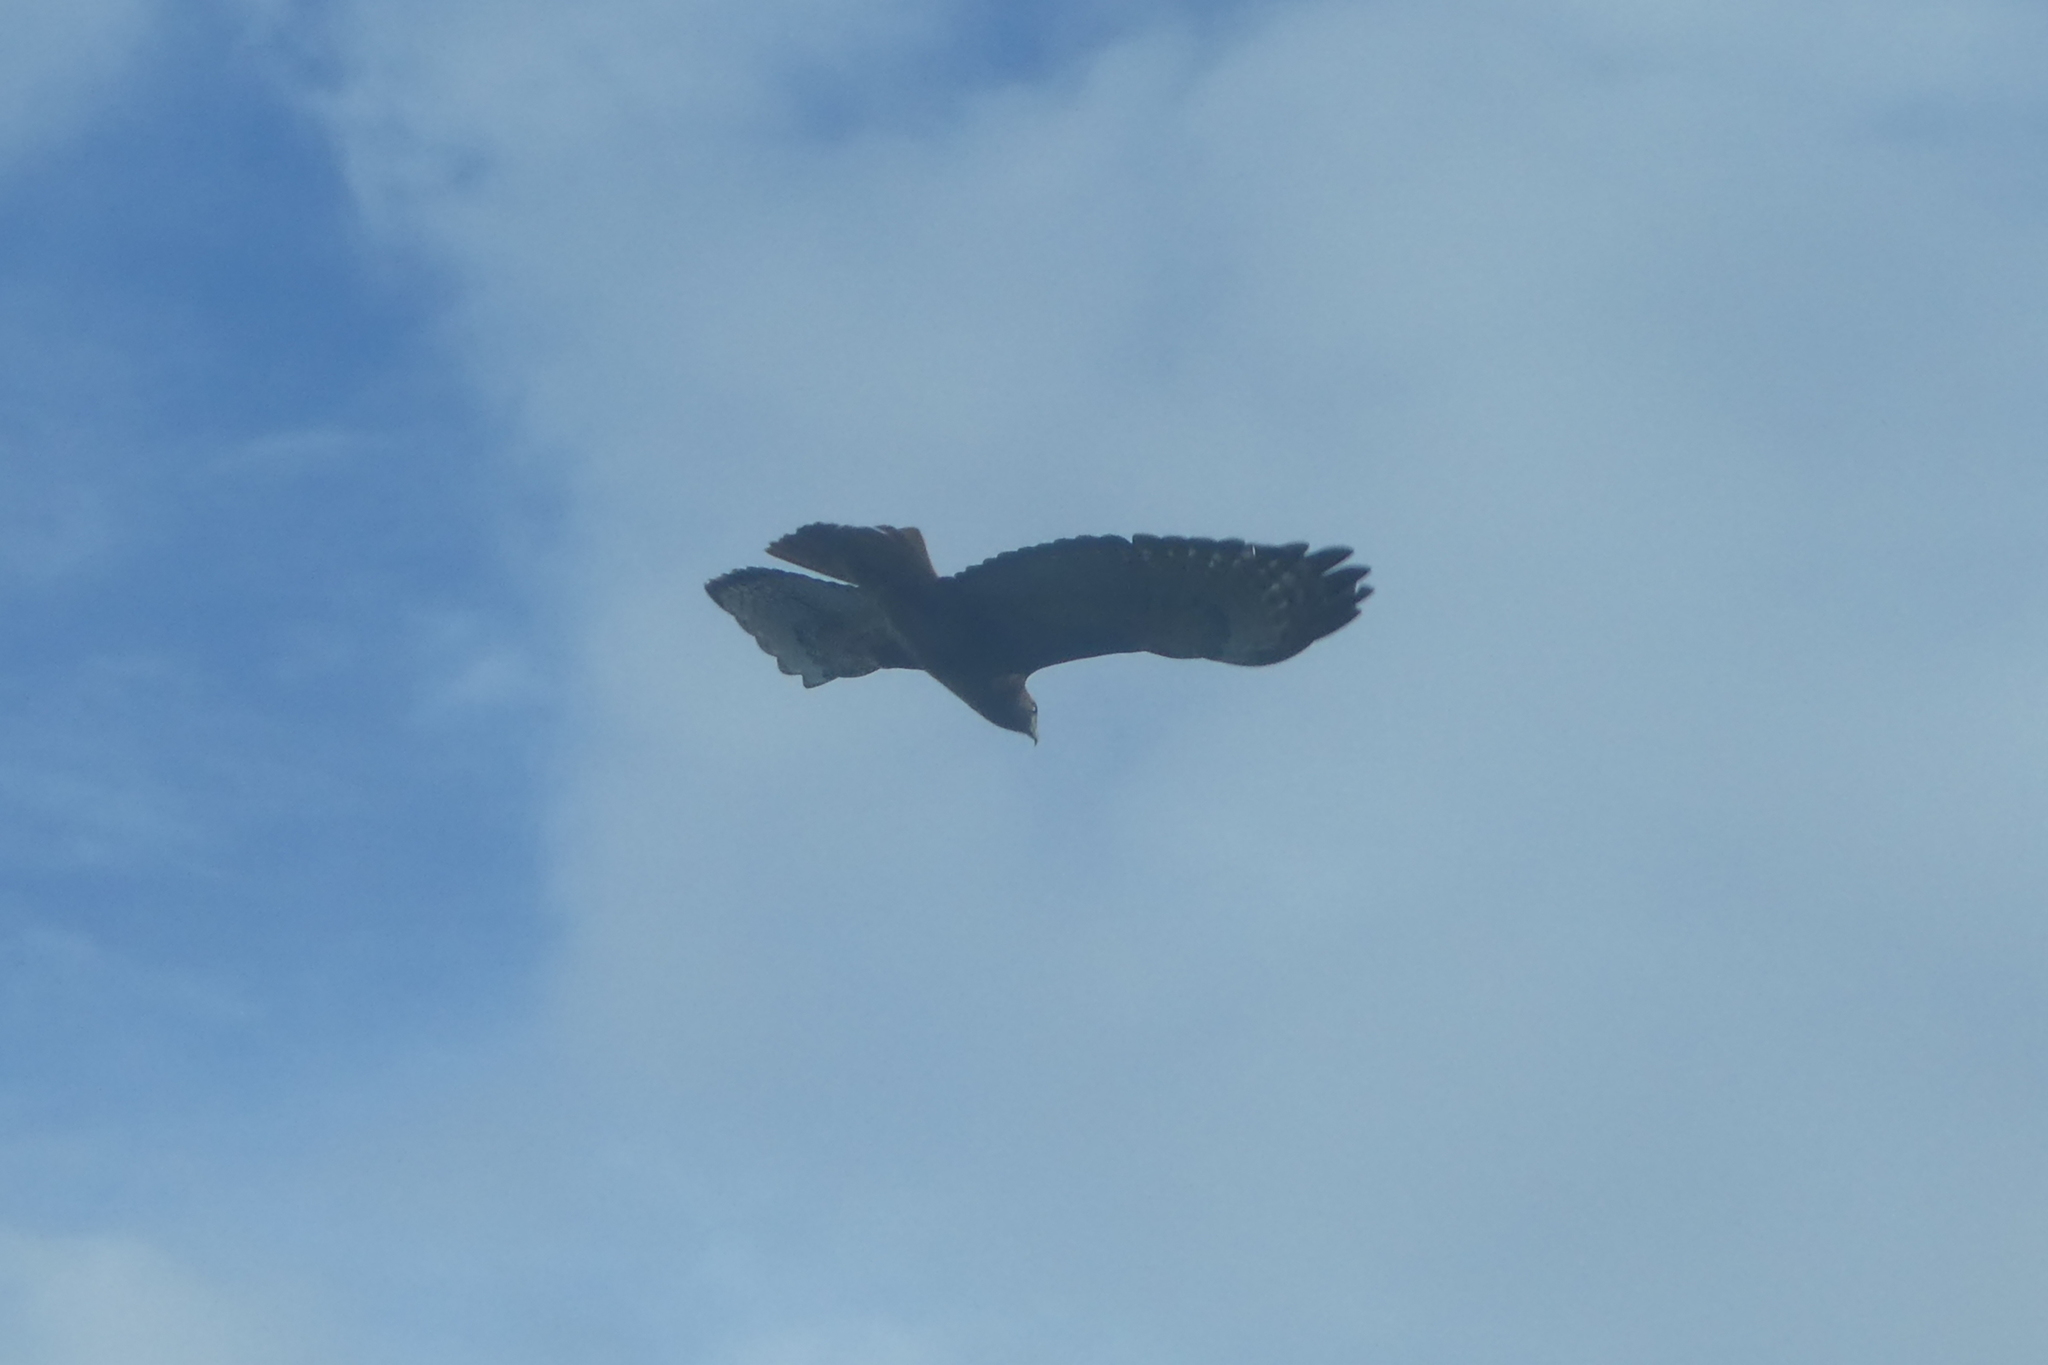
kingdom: Animalia
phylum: Chordata
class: Aves
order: Accipitriformes
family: Accipitridae
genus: Buteo
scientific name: Buteo jamaicensis
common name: Red-tailed hawk
